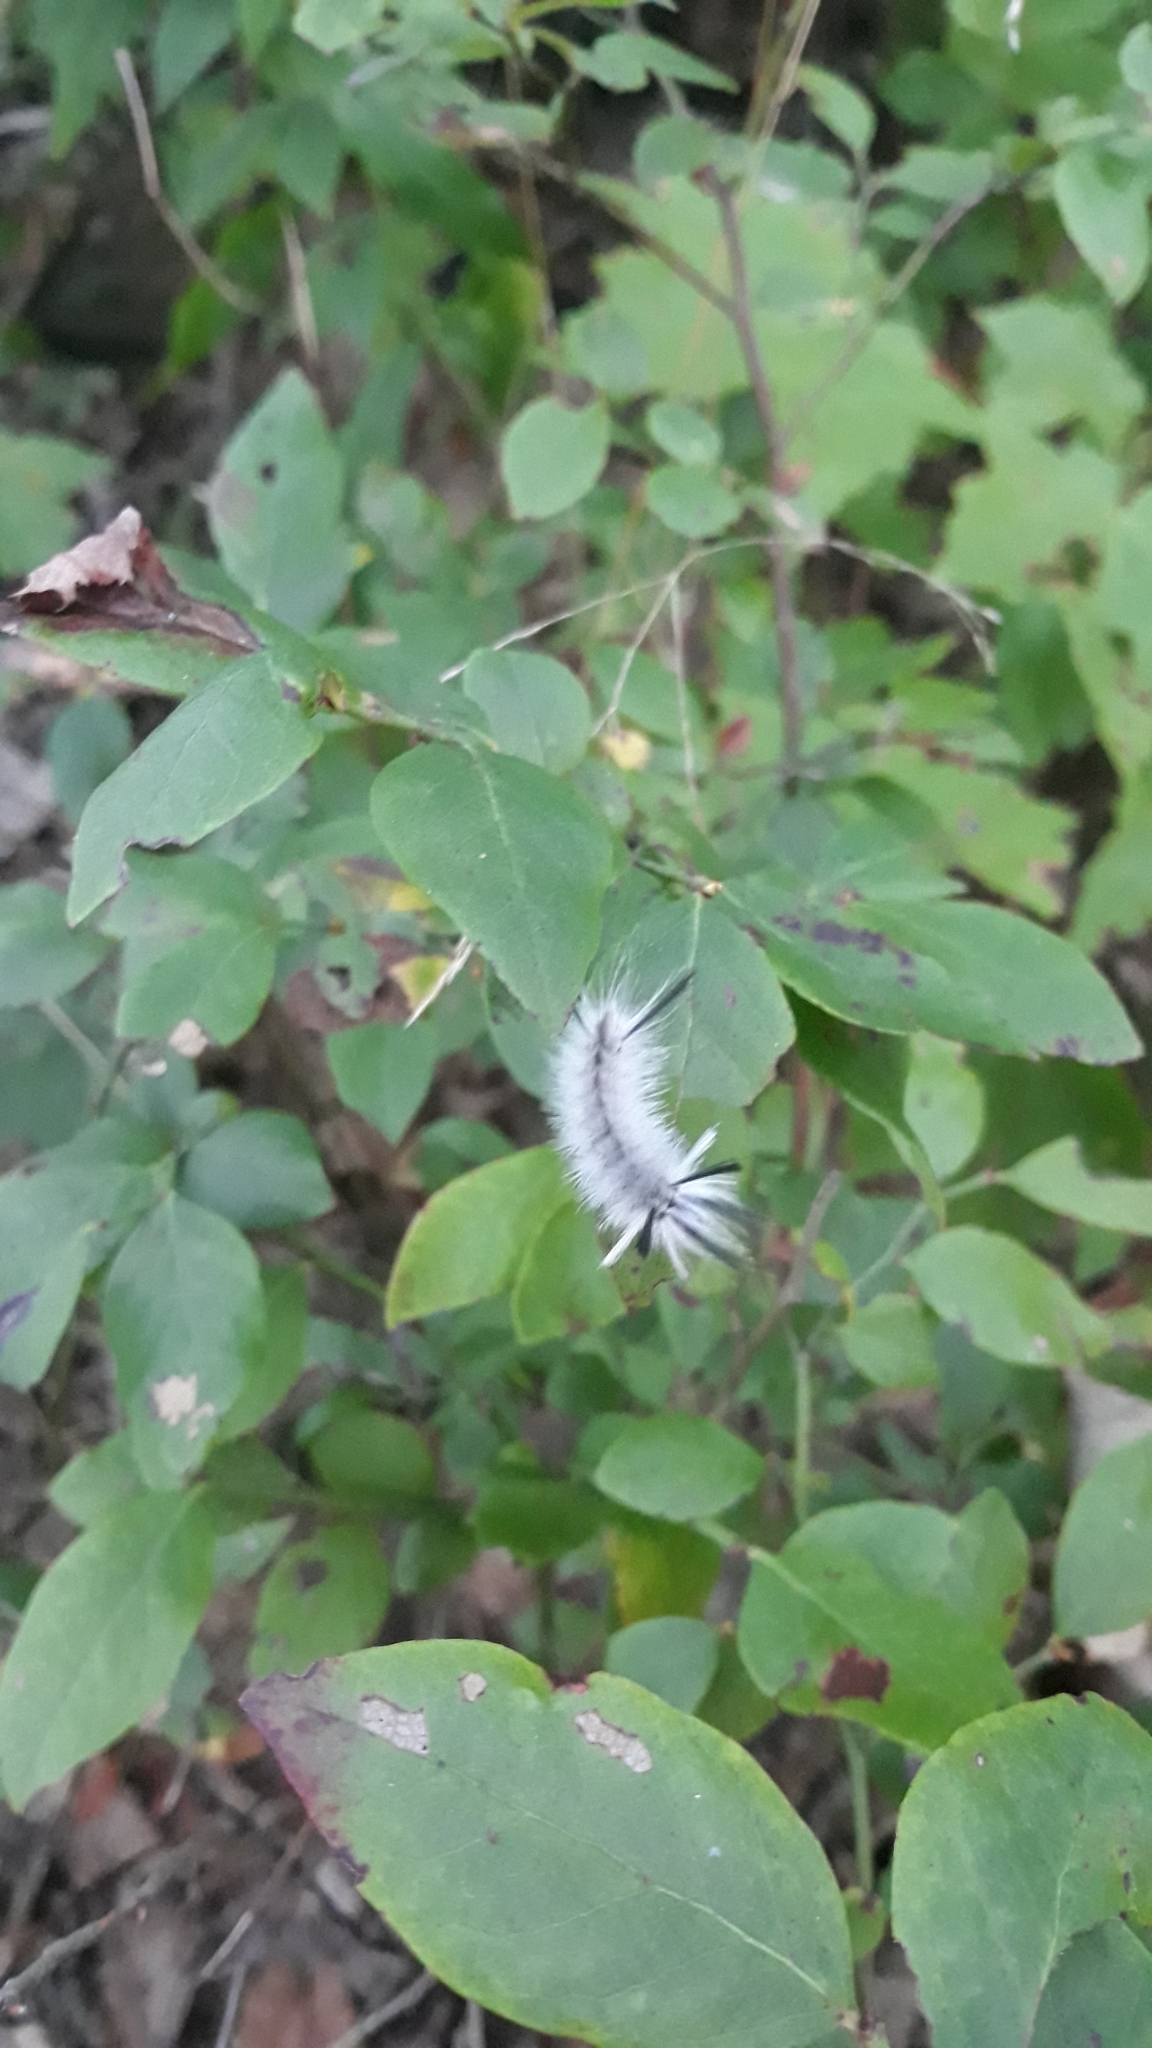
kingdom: Animalia
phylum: Arthropoda
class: Insecta
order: Lepidoptera
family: Erebidae
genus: Halysidota
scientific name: Halysidota tessellaris
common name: Banded tussock moth
